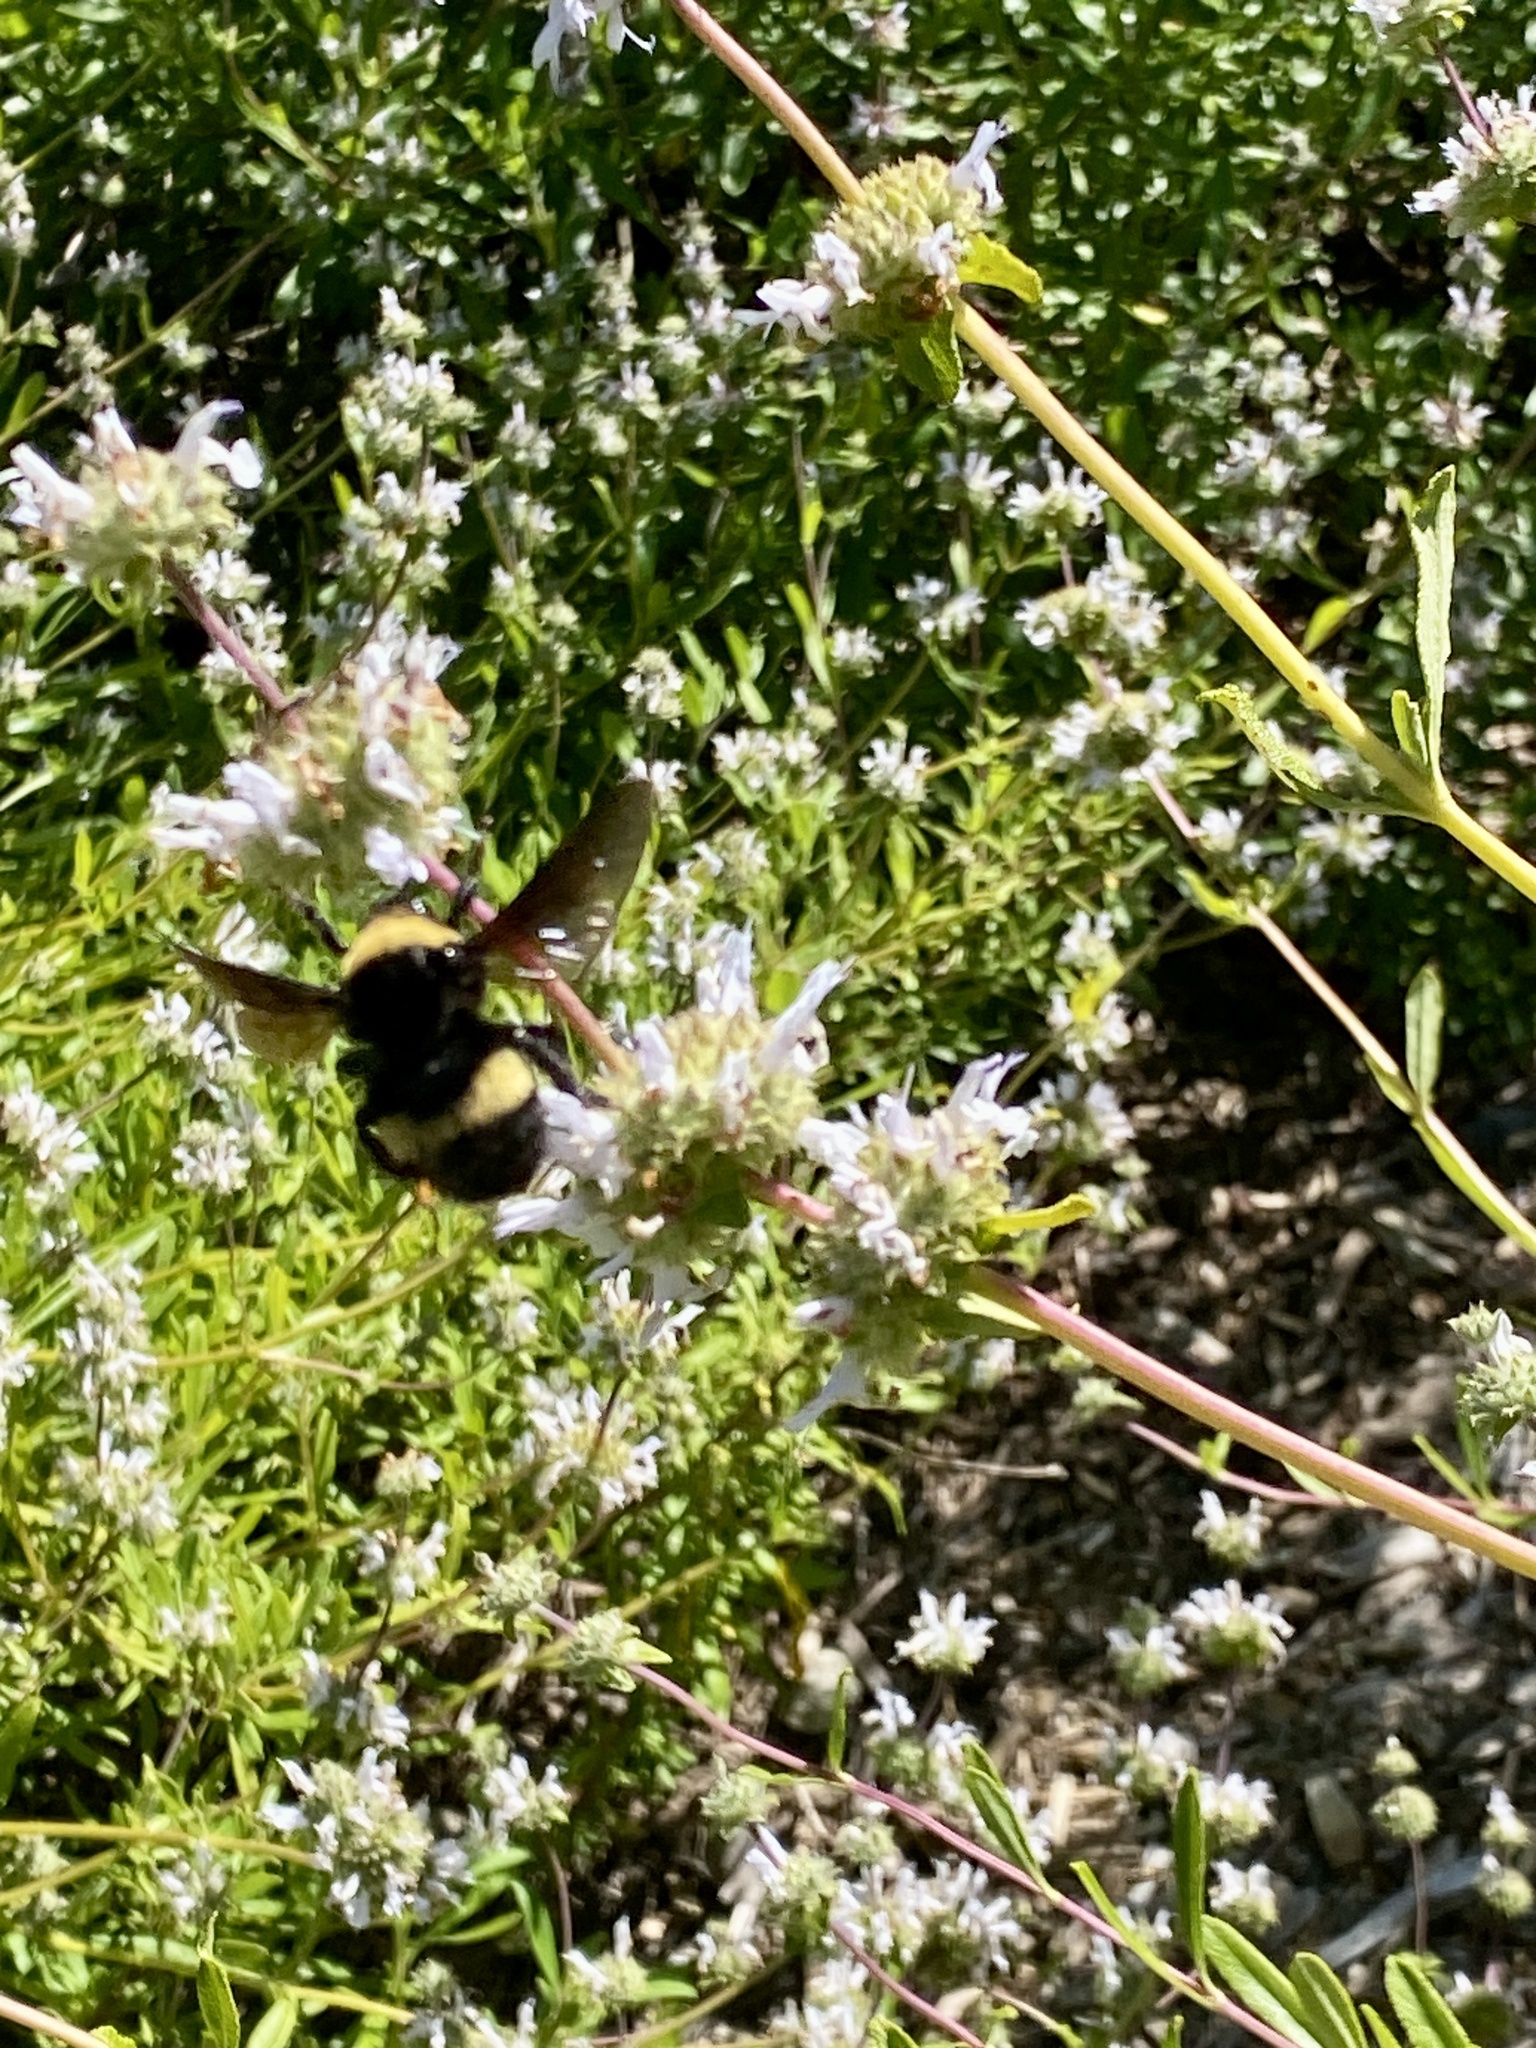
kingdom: Animalia
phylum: Arthropoda
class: Insecta
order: Hymenoptera
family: Apidae
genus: Bombus
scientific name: Bombus crotchii
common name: Crotch bumble bee
